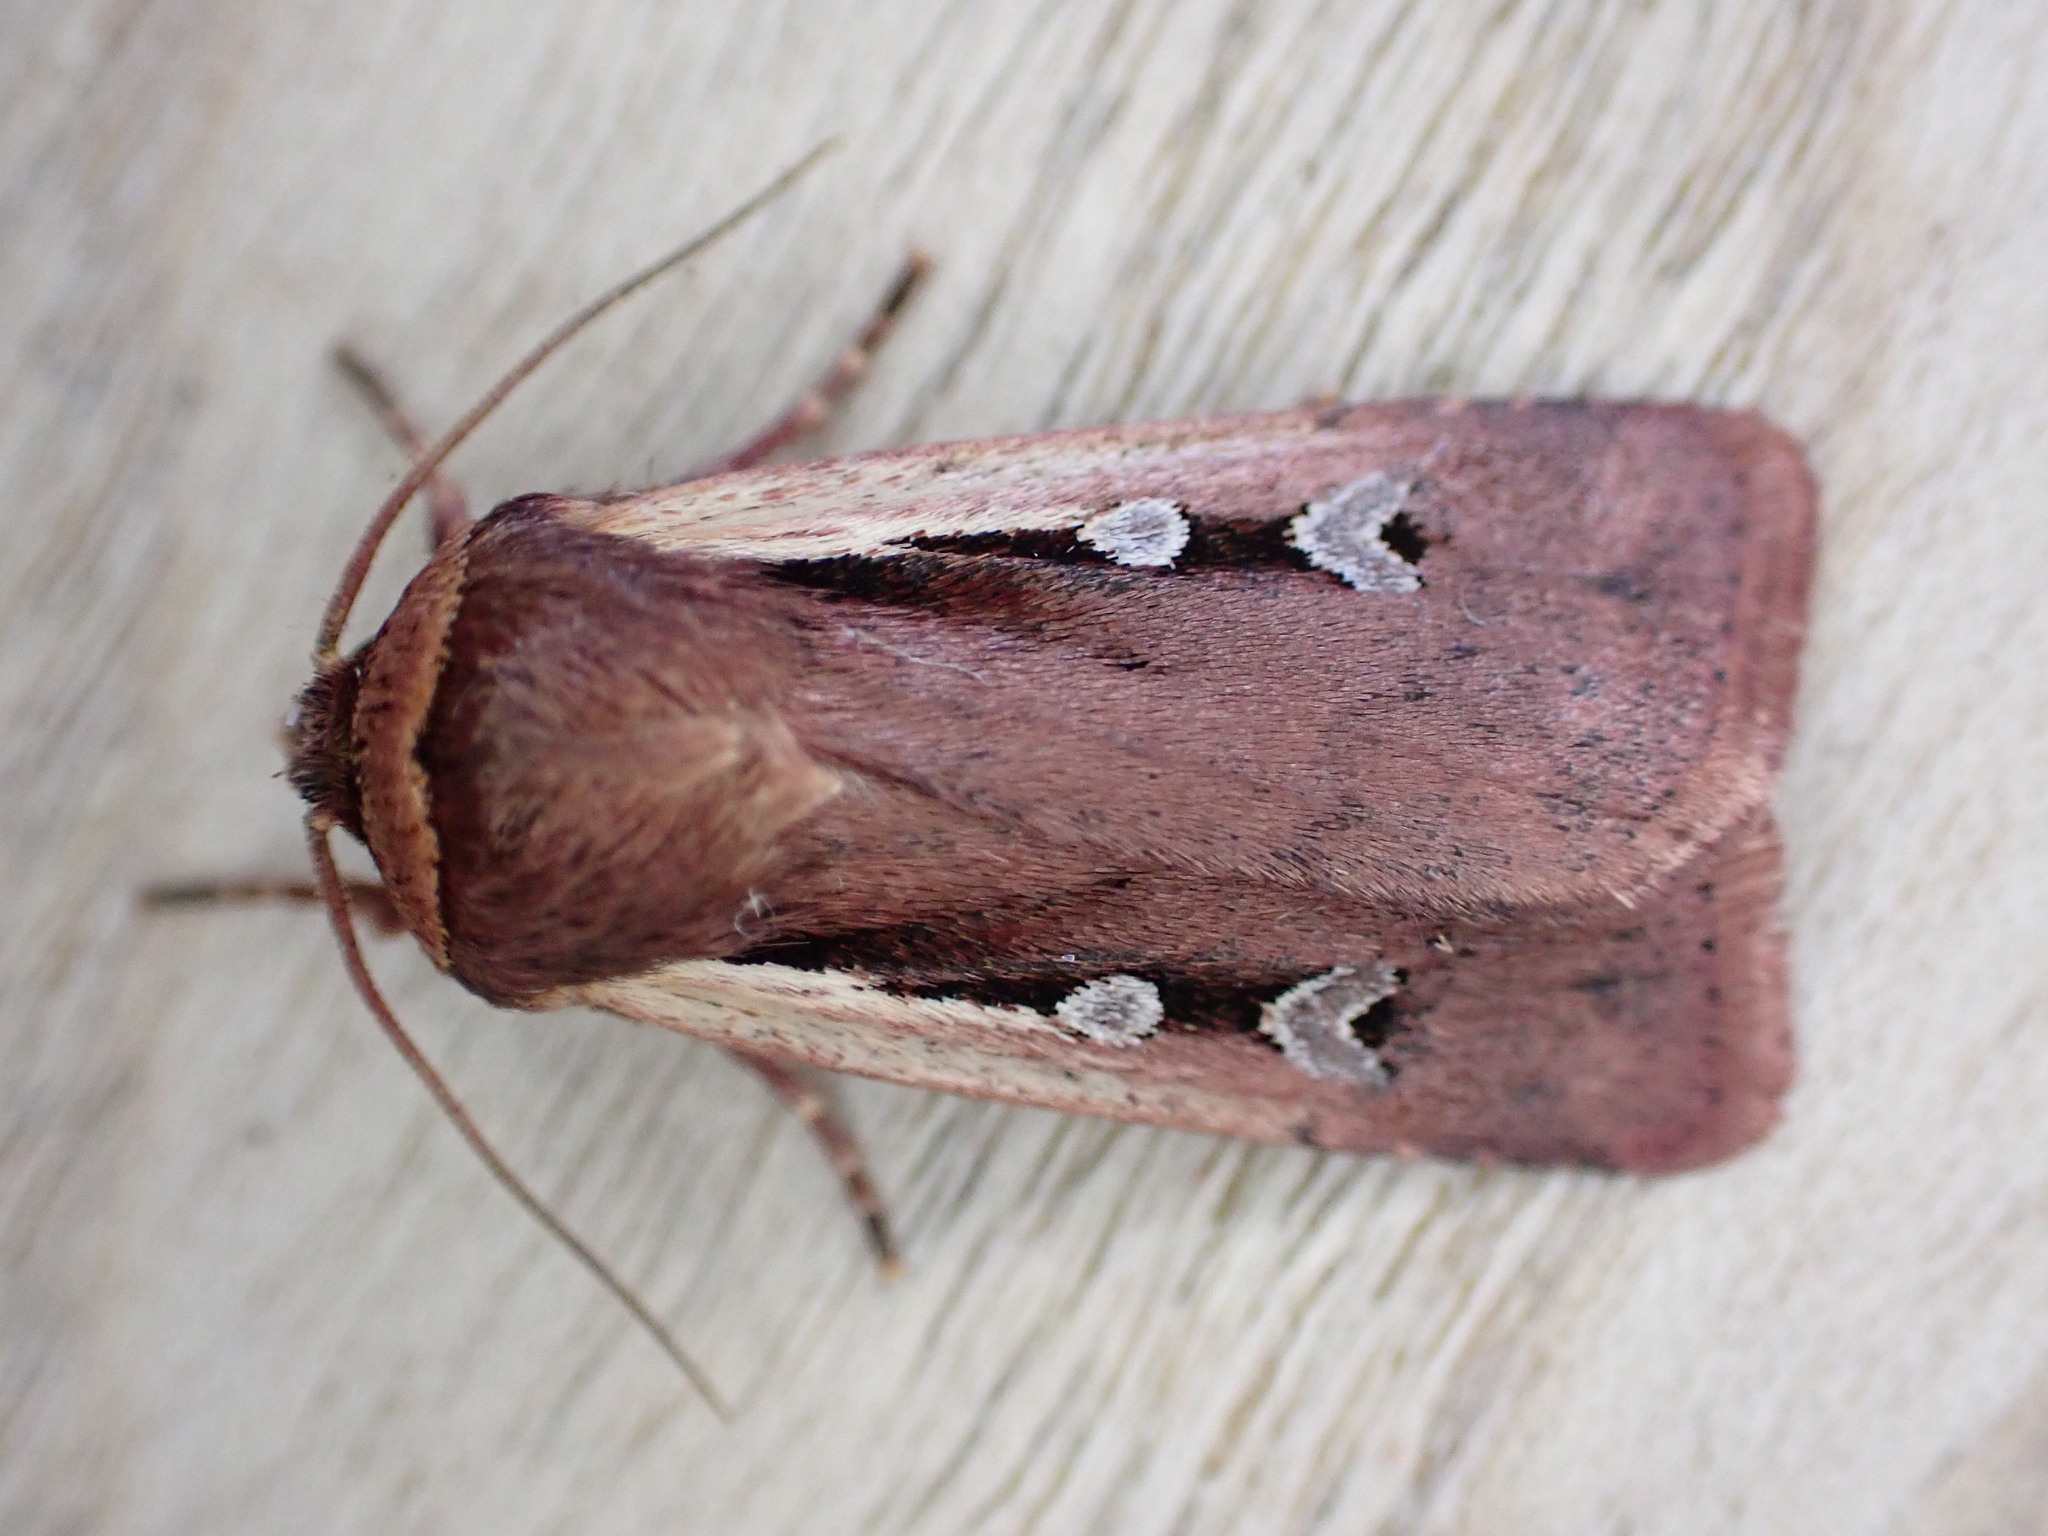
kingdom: Animalia
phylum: Arthropoda
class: Insecta
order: Lepidoptera
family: Noctuidae
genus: Ochropleura
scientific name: Ochropleura plecta
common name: Flame shoulder
